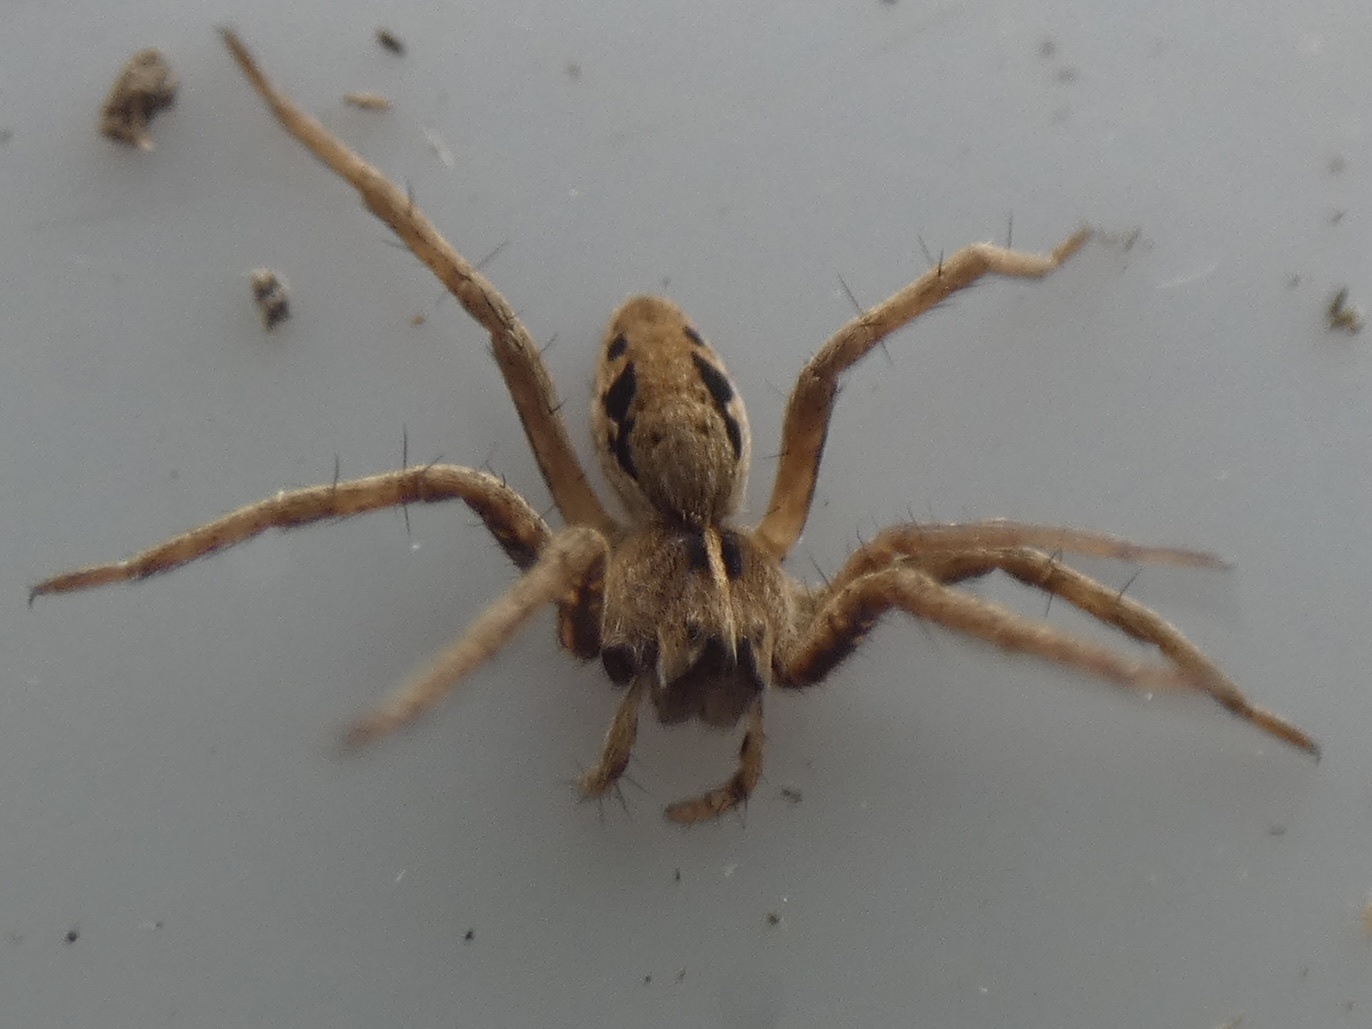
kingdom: Animalia
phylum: Arthropoda
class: Arachnida
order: Araneae
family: Pisauridae
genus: Pisaura
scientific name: Pisaura mirabilis
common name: Tent spider
